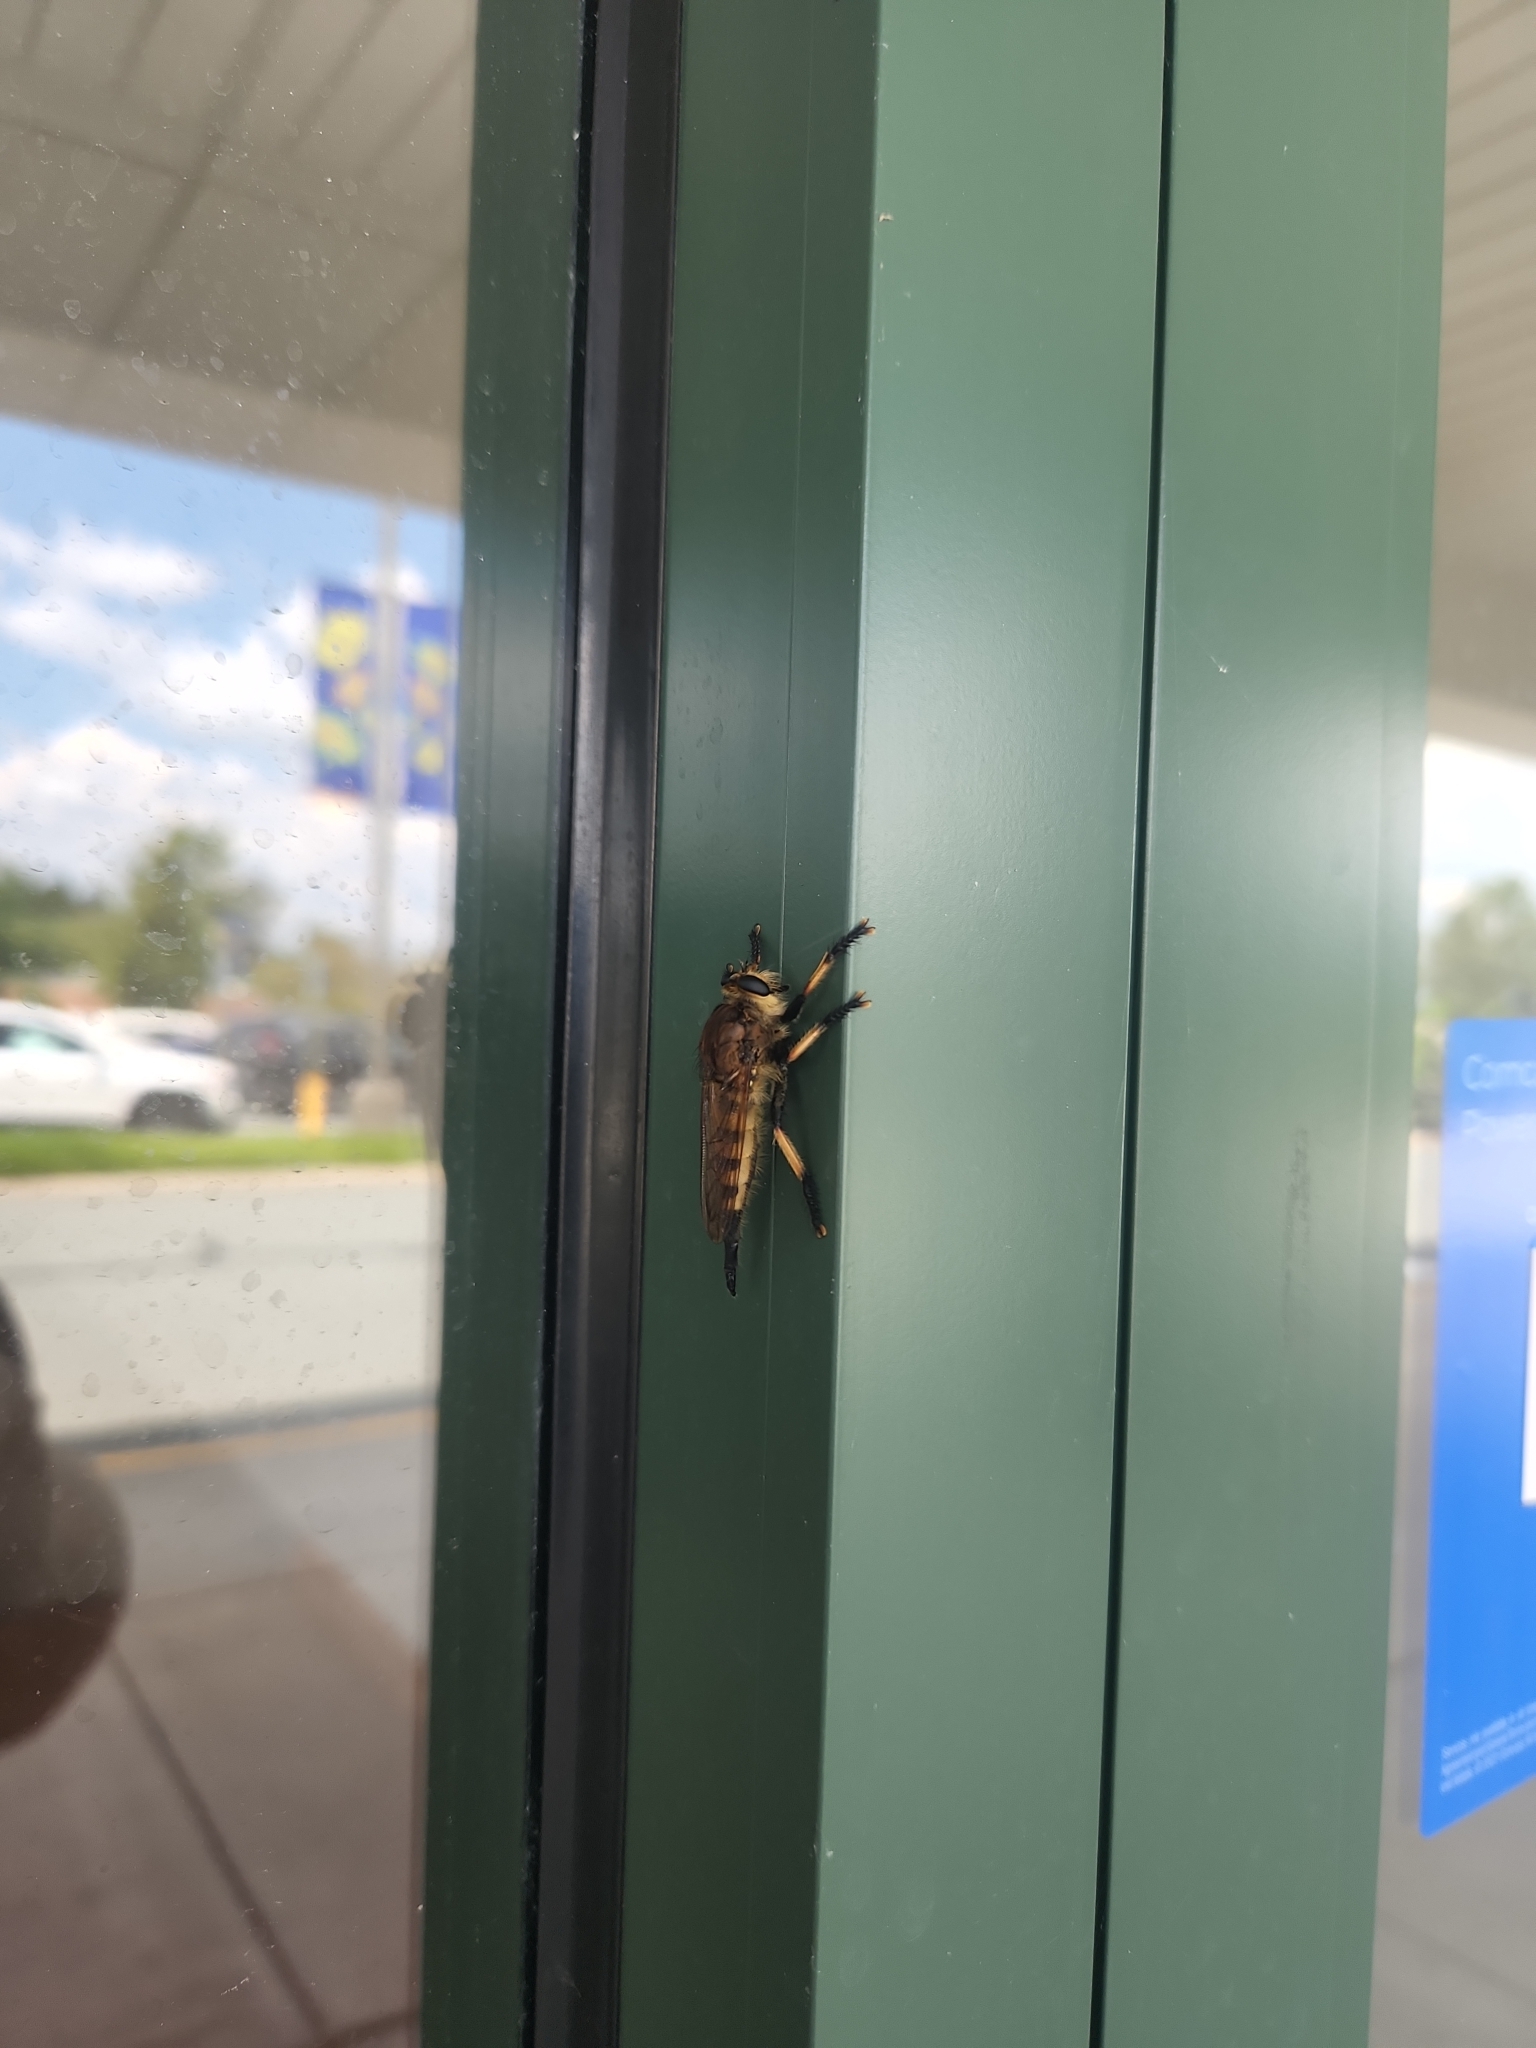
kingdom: Animalia
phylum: Arthropoda
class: Insecta
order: Diptera
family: Asilidae
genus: Promachus
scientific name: Promachus rufipes
